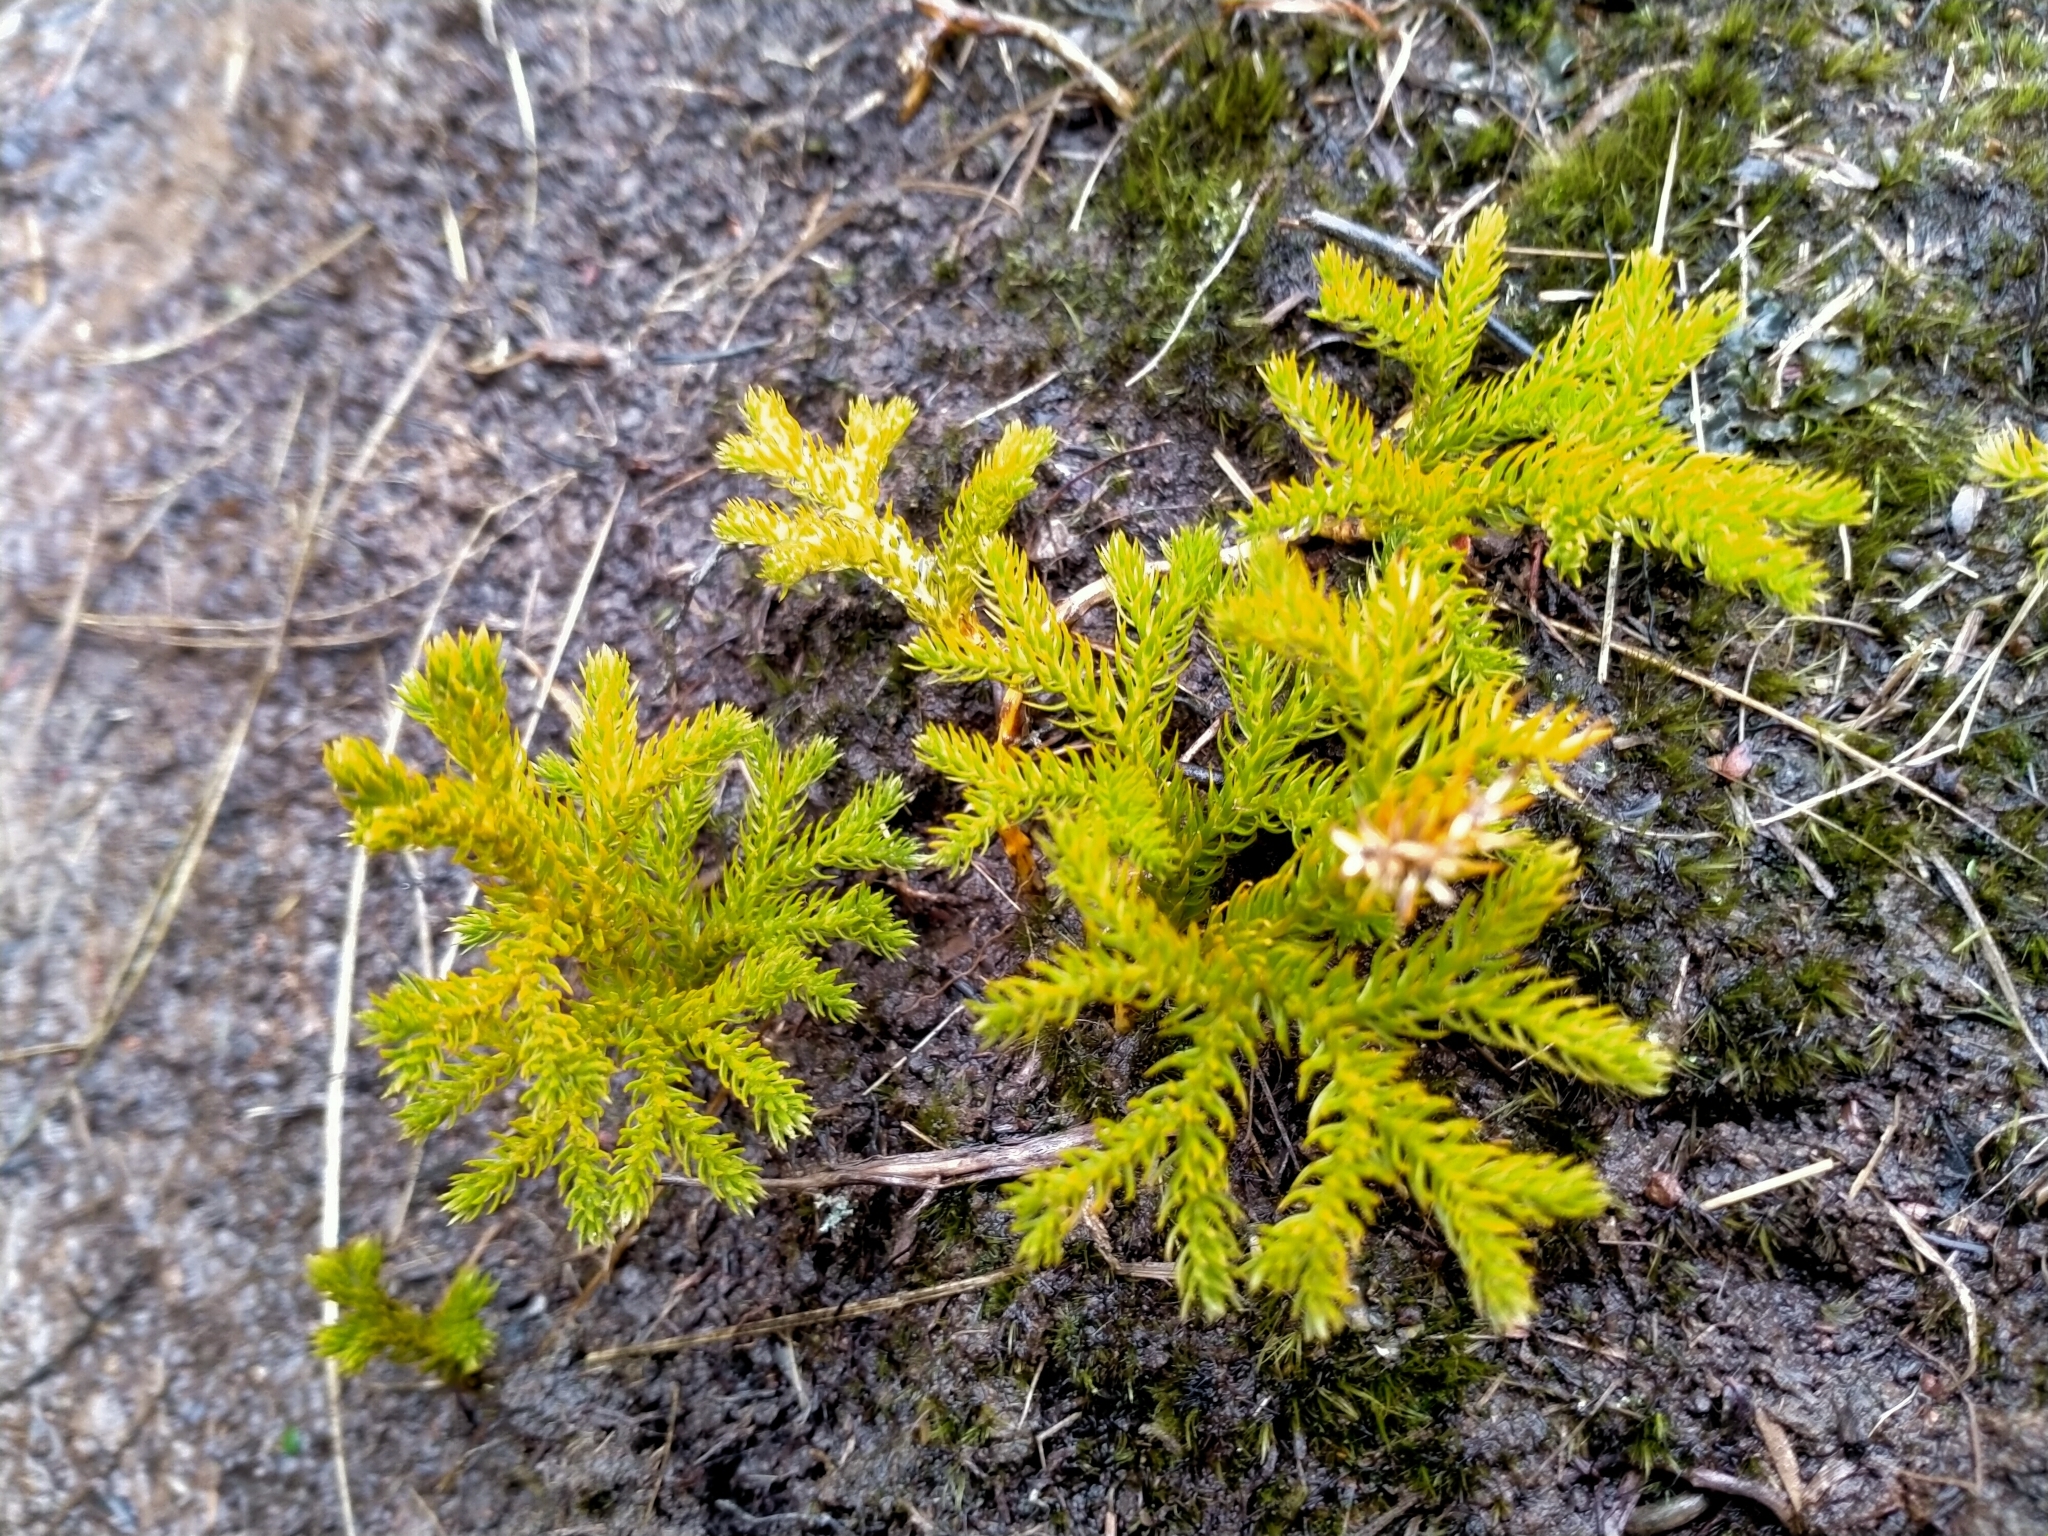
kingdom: Plantae
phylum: Tracheophyta
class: Lycopodiopsida
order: Lycopodiales
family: Lycopodiaceae
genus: Austrolycopodium
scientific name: Austrolycopodium fastigiatum
